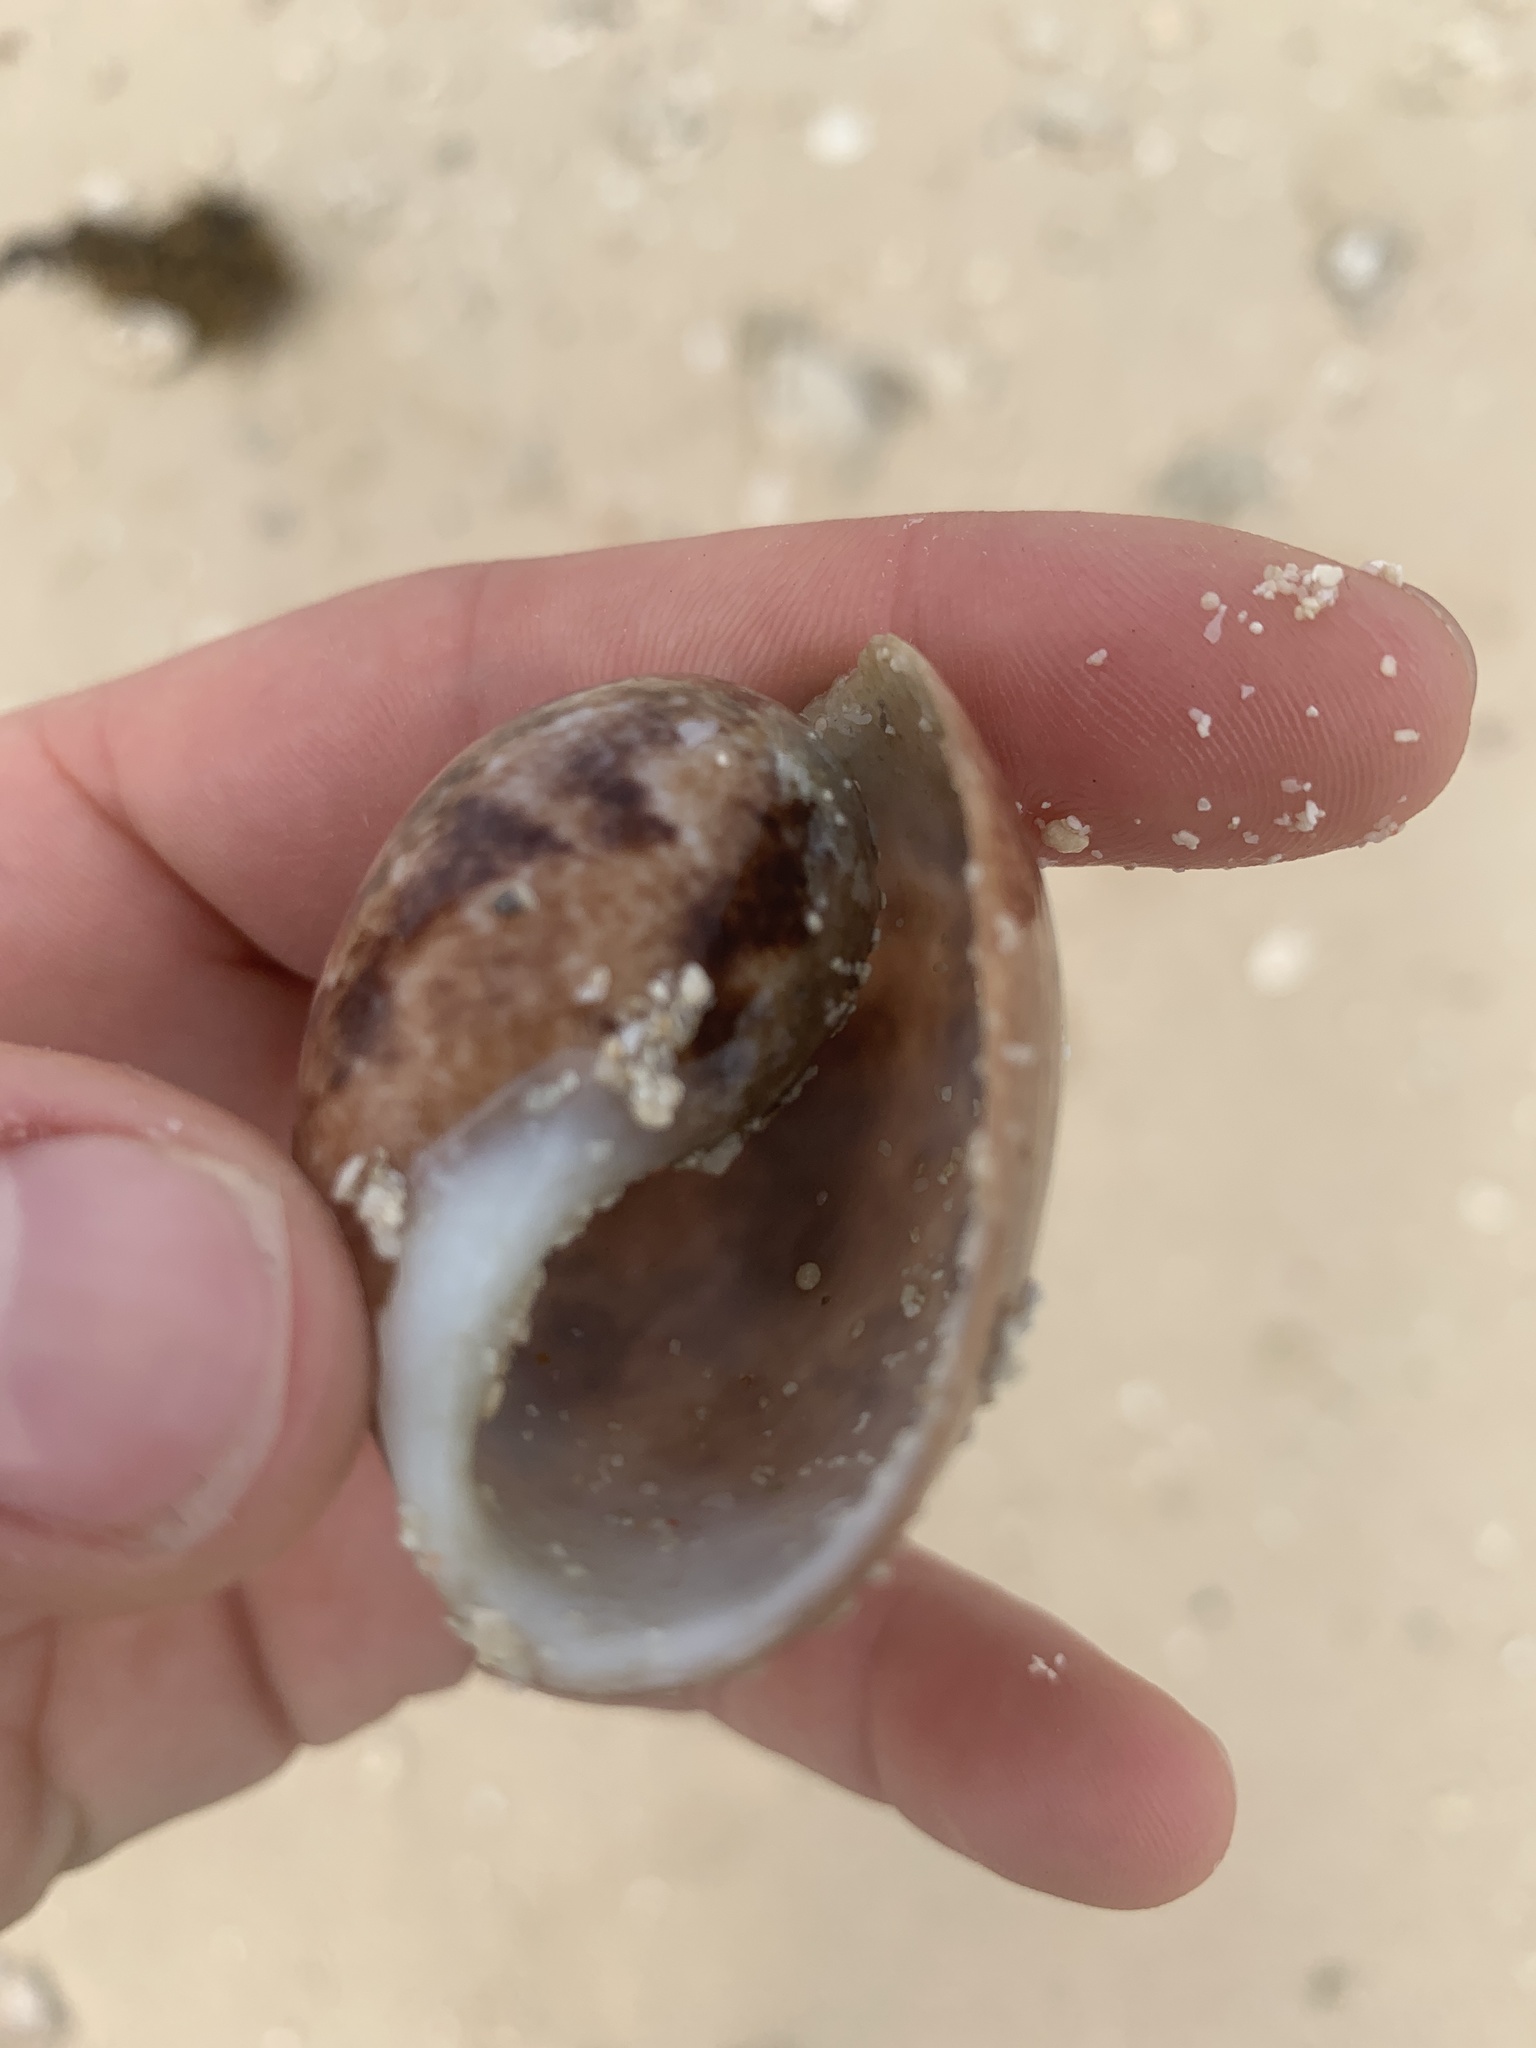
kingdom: Animalia
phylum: Mollusca
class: Gastropoda
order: Cephalaspidea
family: Bullidae
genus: Bulla
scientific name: Bulla ampulla
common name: Ampulle bubble
